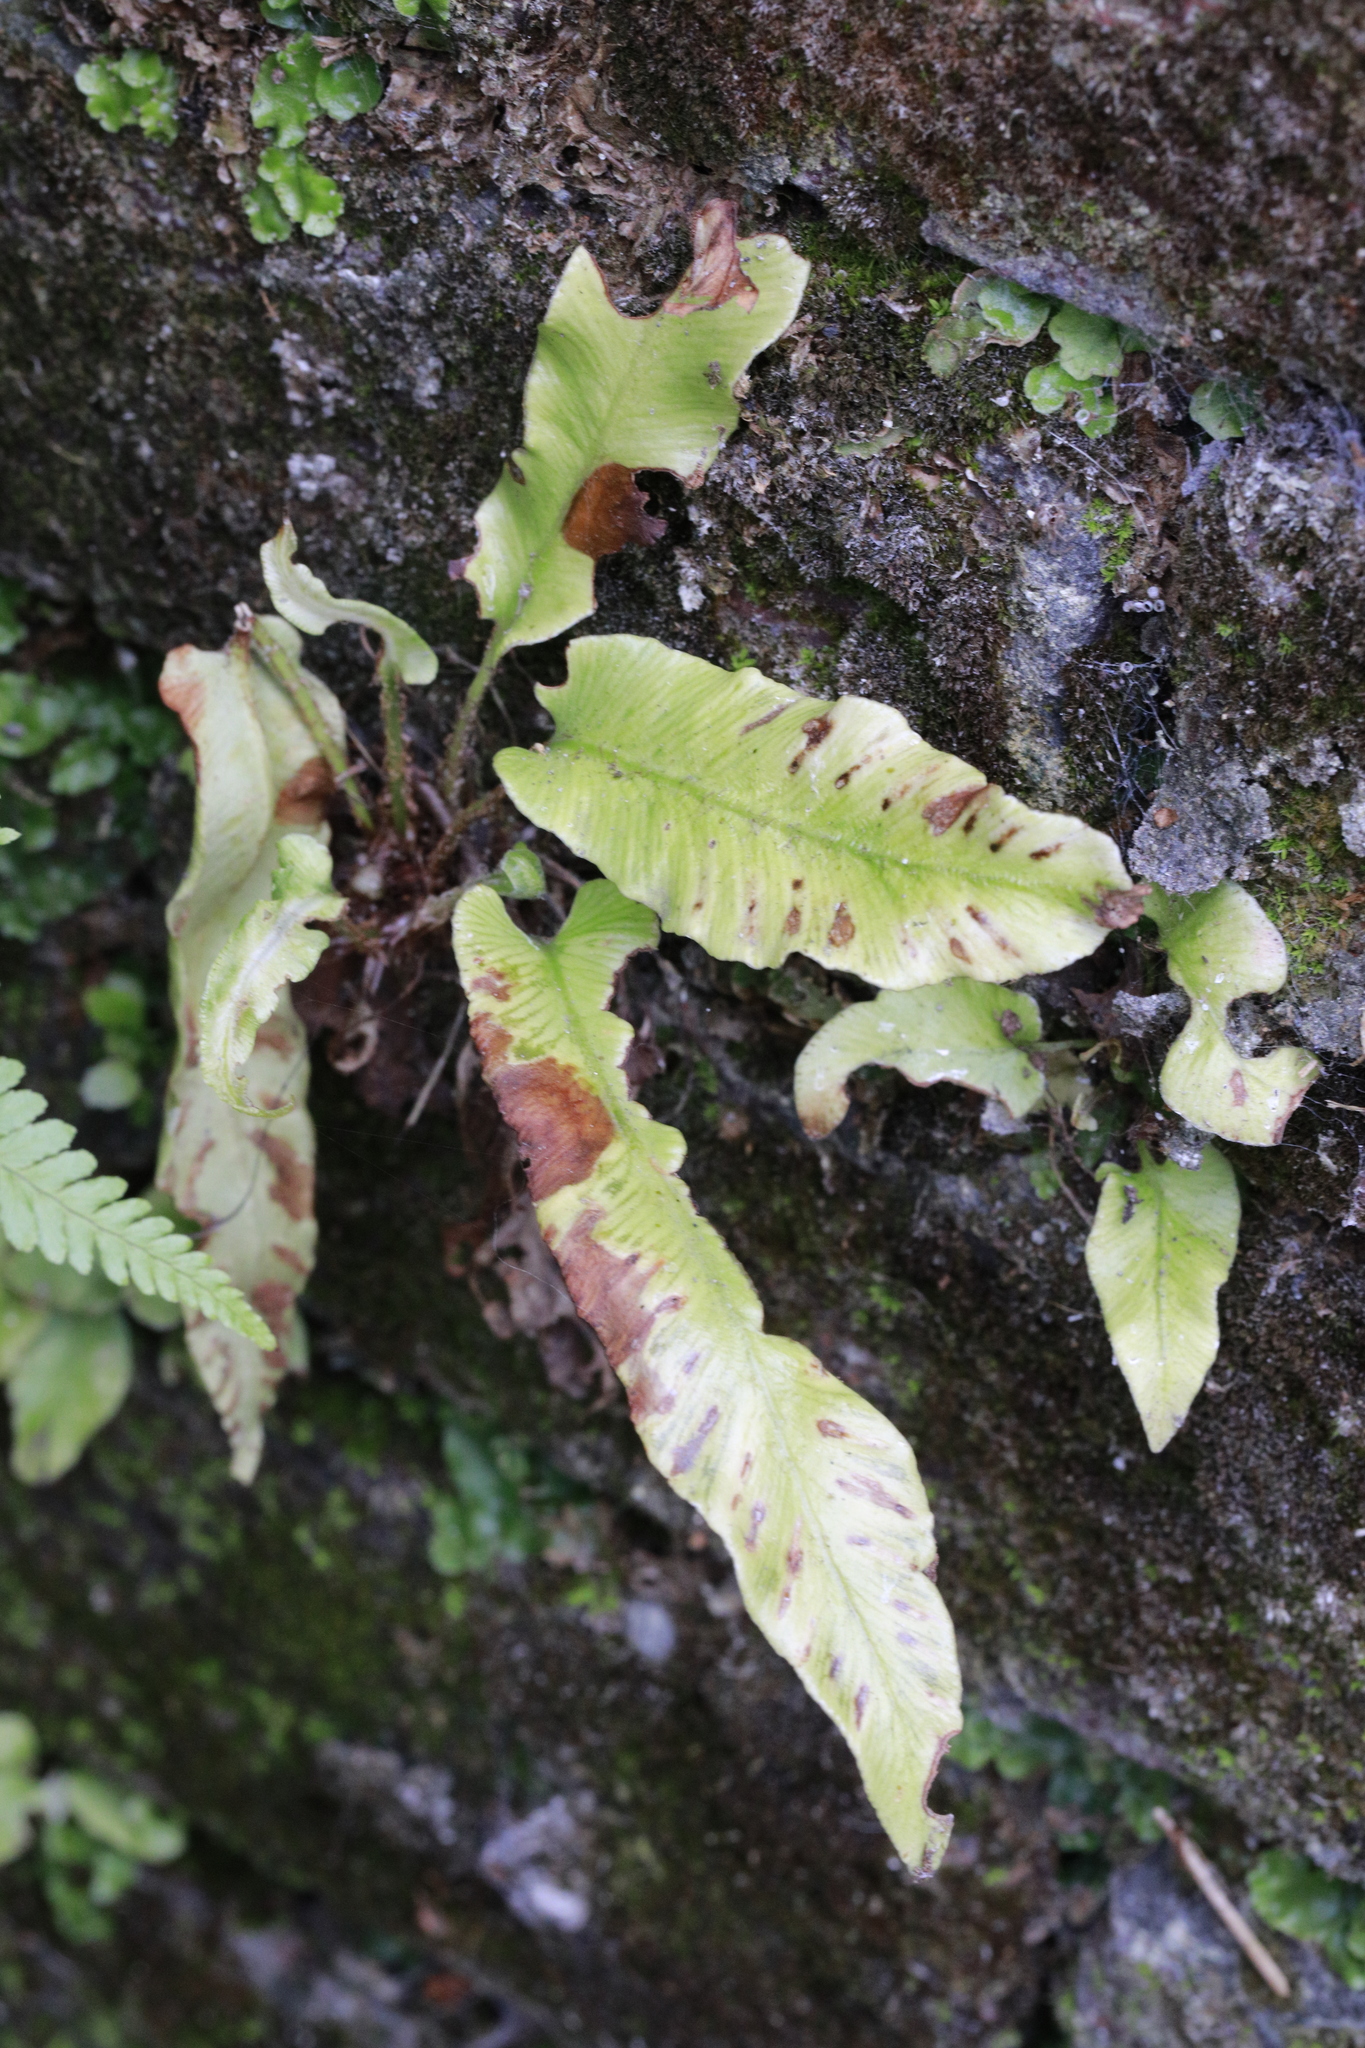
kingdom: Plantae
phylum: Tracheophyta
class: Polypodiopsida
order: Polypodiales
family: Aspleniaceae
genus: Asplenium
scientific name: Asplenium scolopendrium
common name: Hart's-tongue fern
